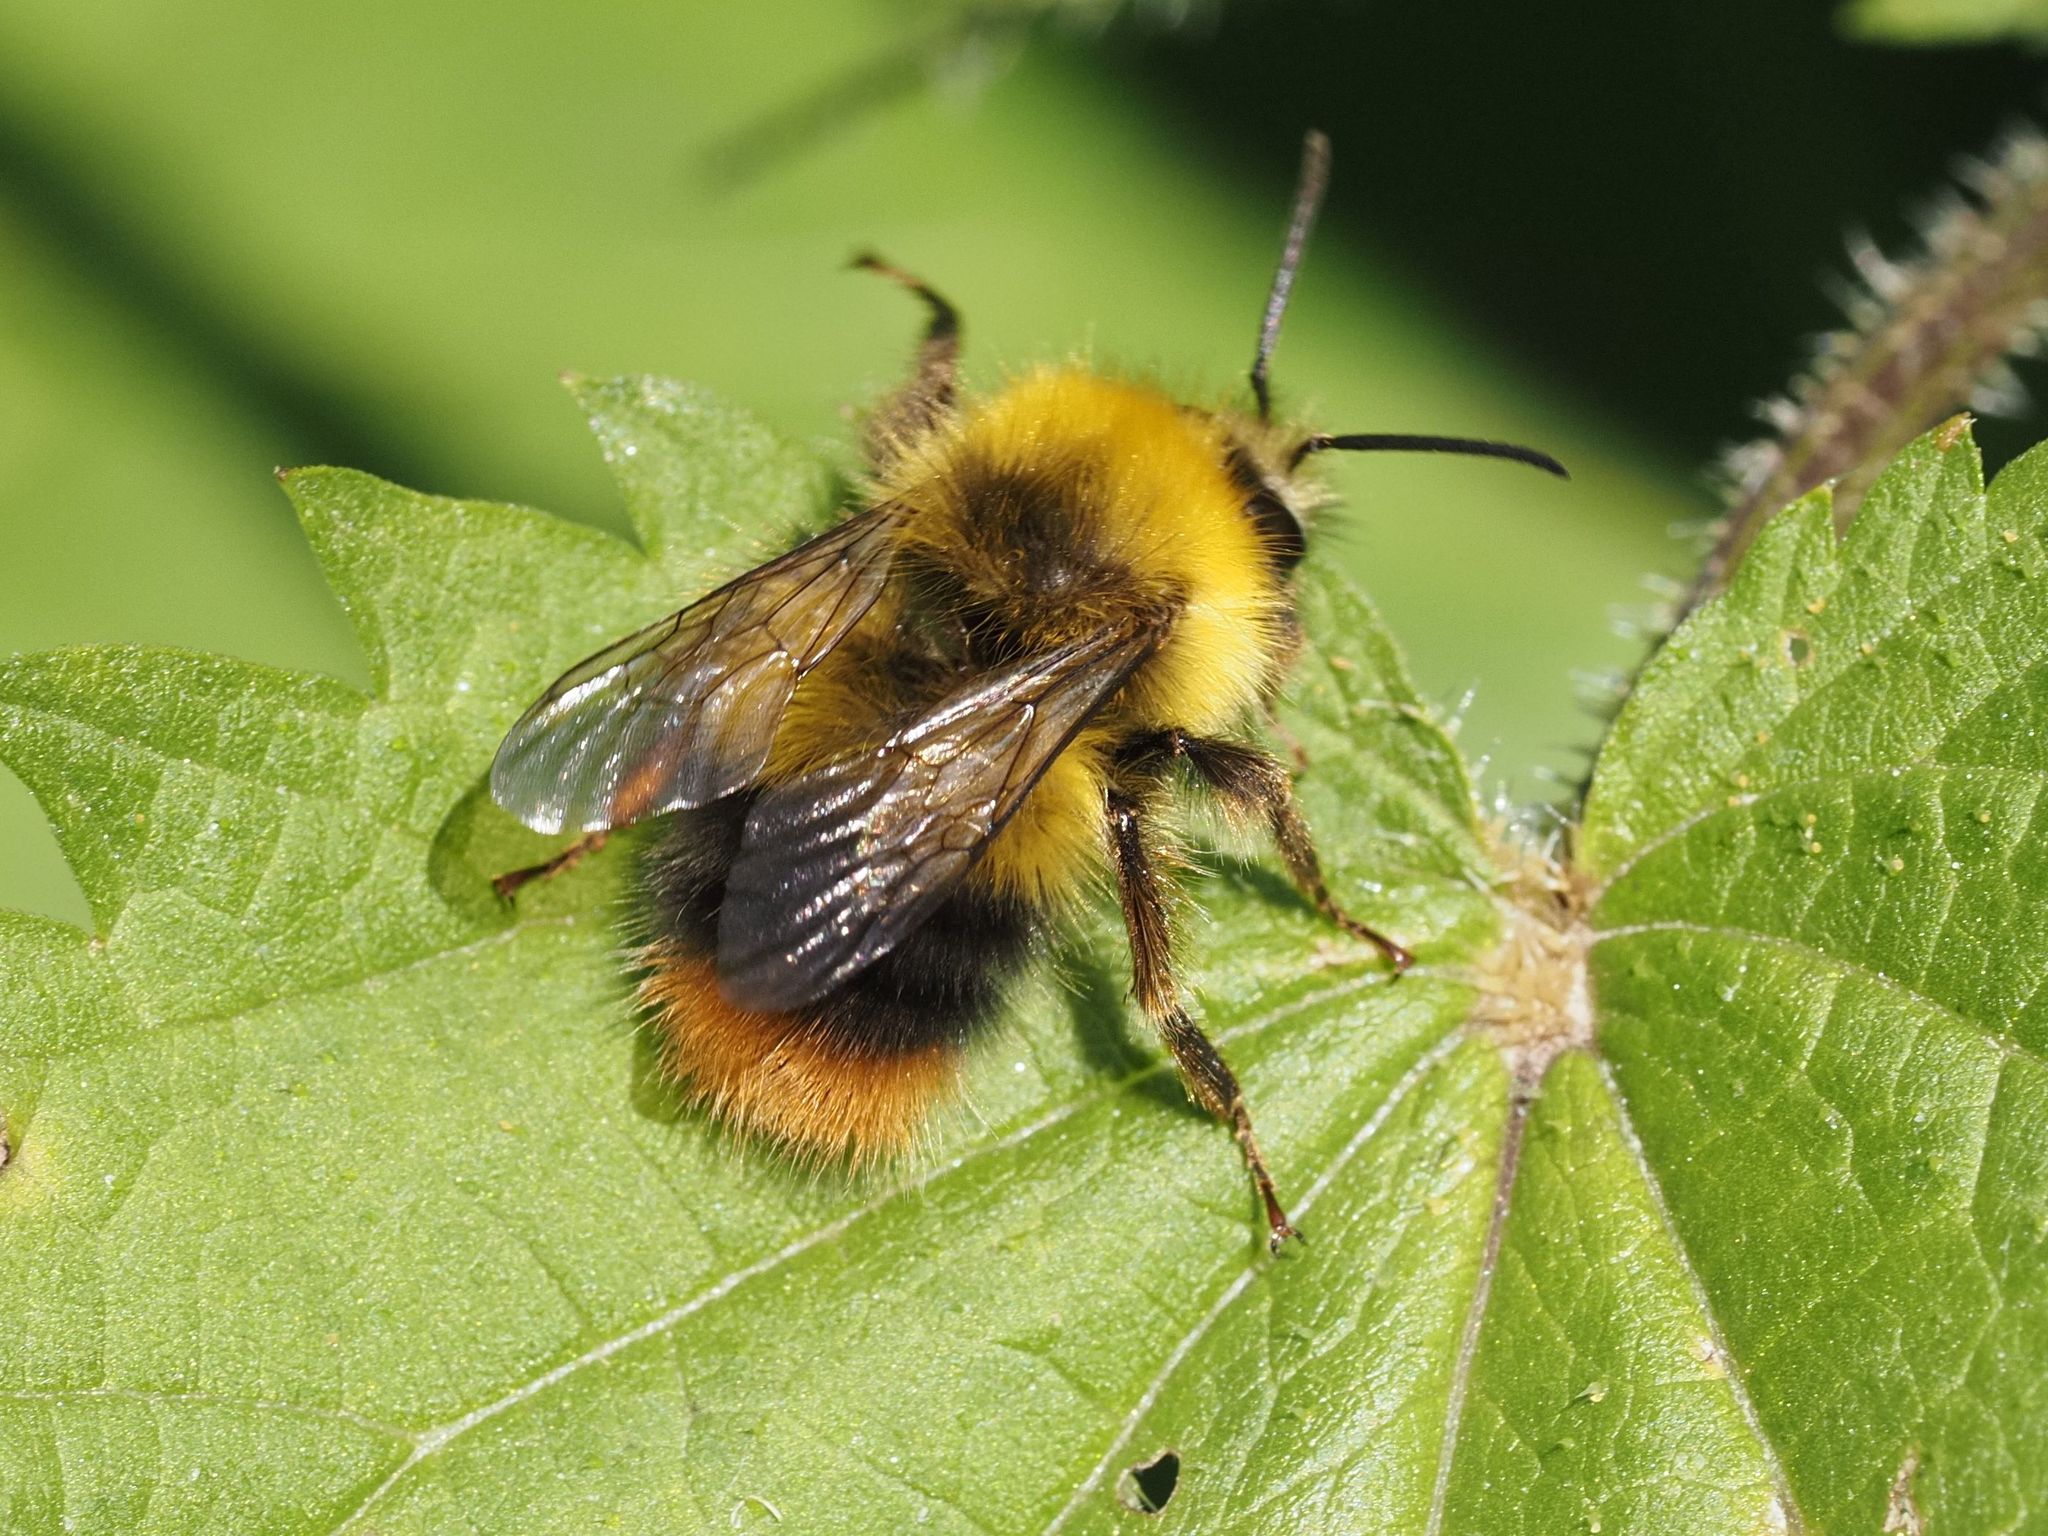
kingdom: Animalia
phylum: Arthropoda
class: Insecta
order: Hymenoptera
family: Apidae
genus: Bombus
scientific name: Bombus pratorum
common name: Early humble-bee
